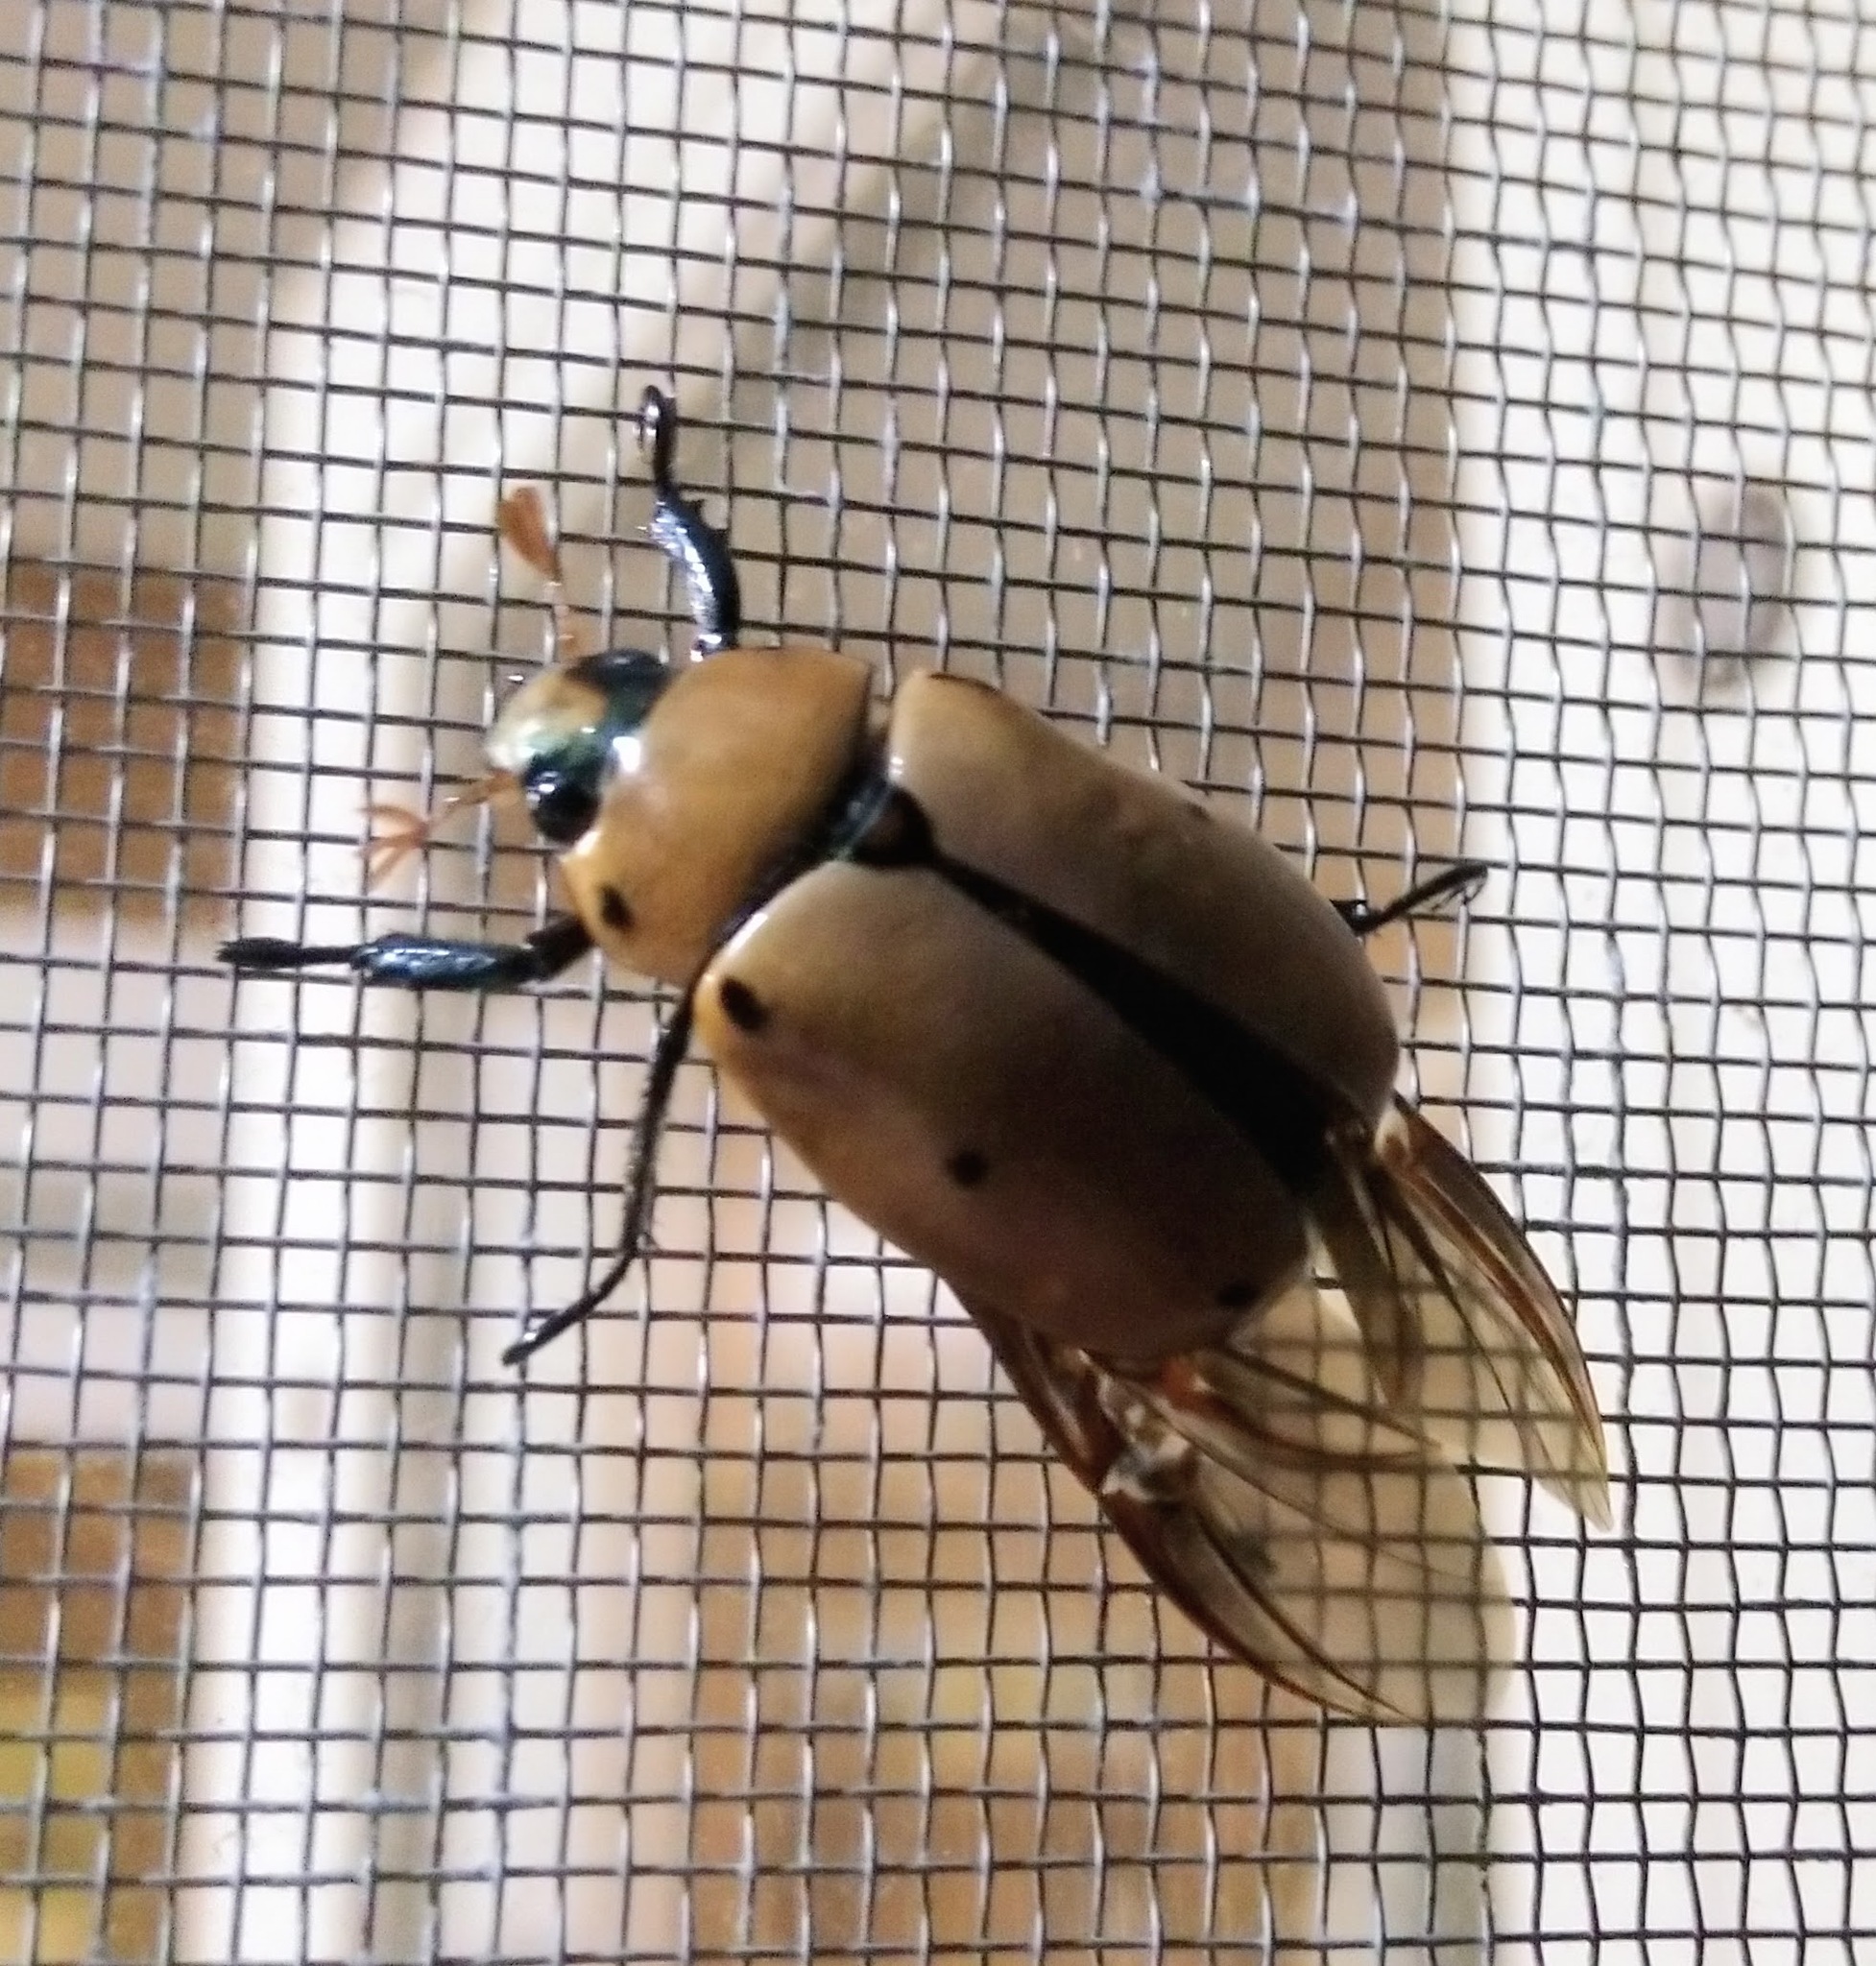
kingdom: Animalia
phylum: Arthropoda
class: Insecta
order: Coleoptera
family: Scarabaeidae
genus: Pelidnota
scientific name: Pelidnota punctata
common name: Grapevine beetle
